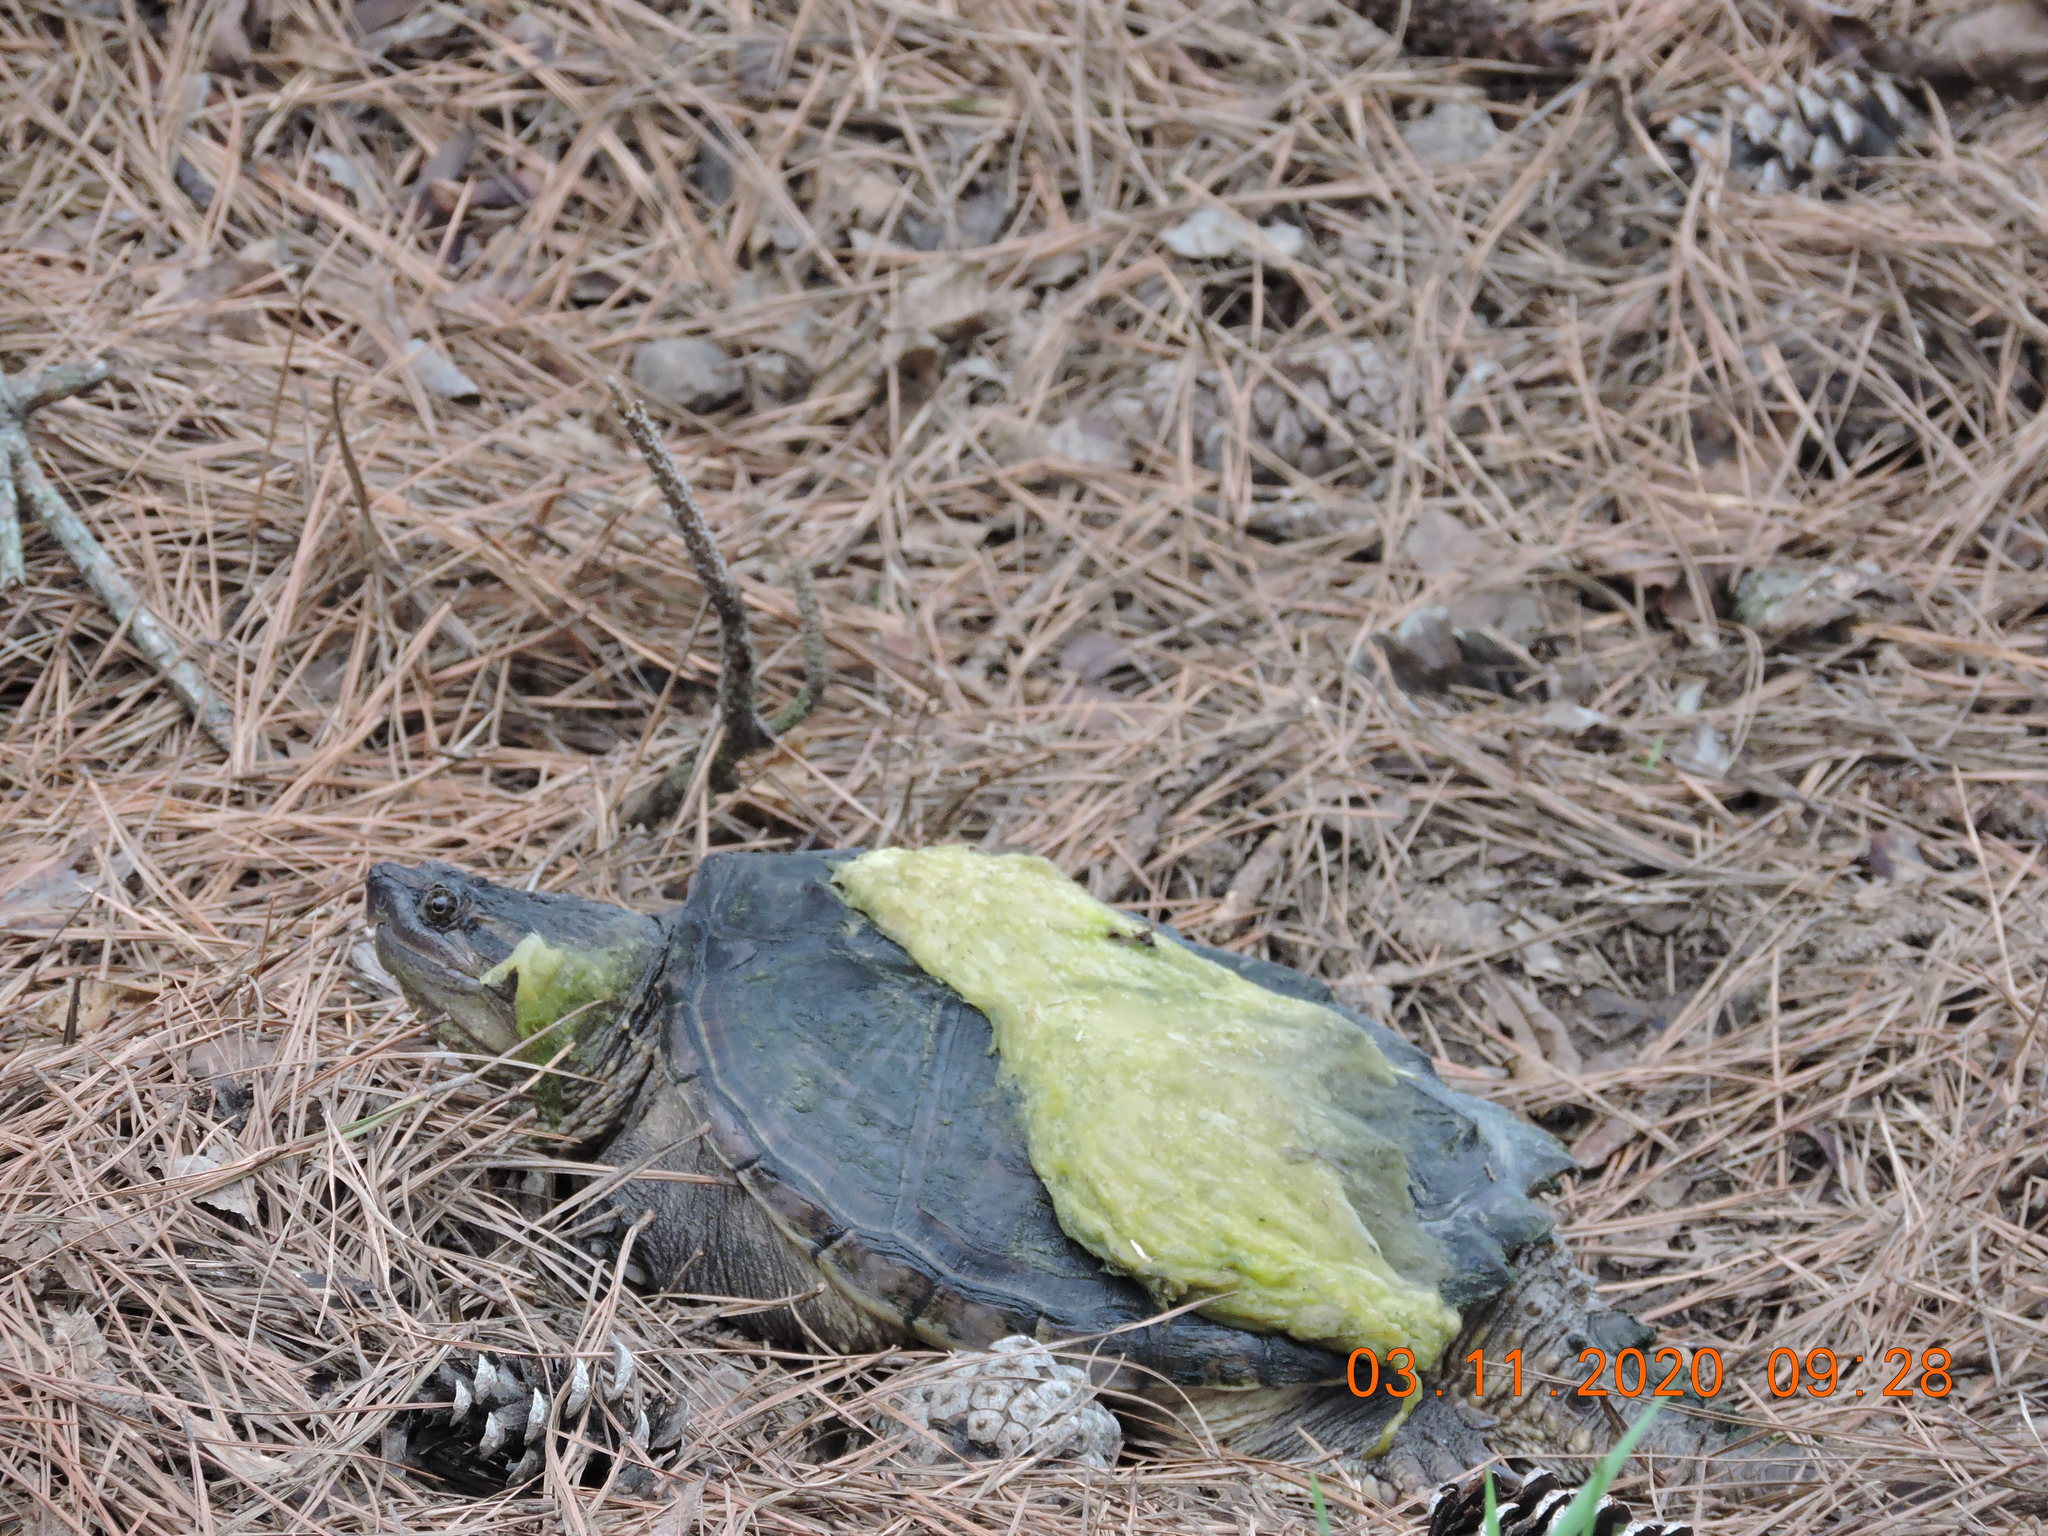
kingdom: Animalia
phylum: Chordata
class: Testudines
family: Chelydridae
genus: Chelydra
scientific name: Chelydra serpentina
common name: Common snapping turtle
